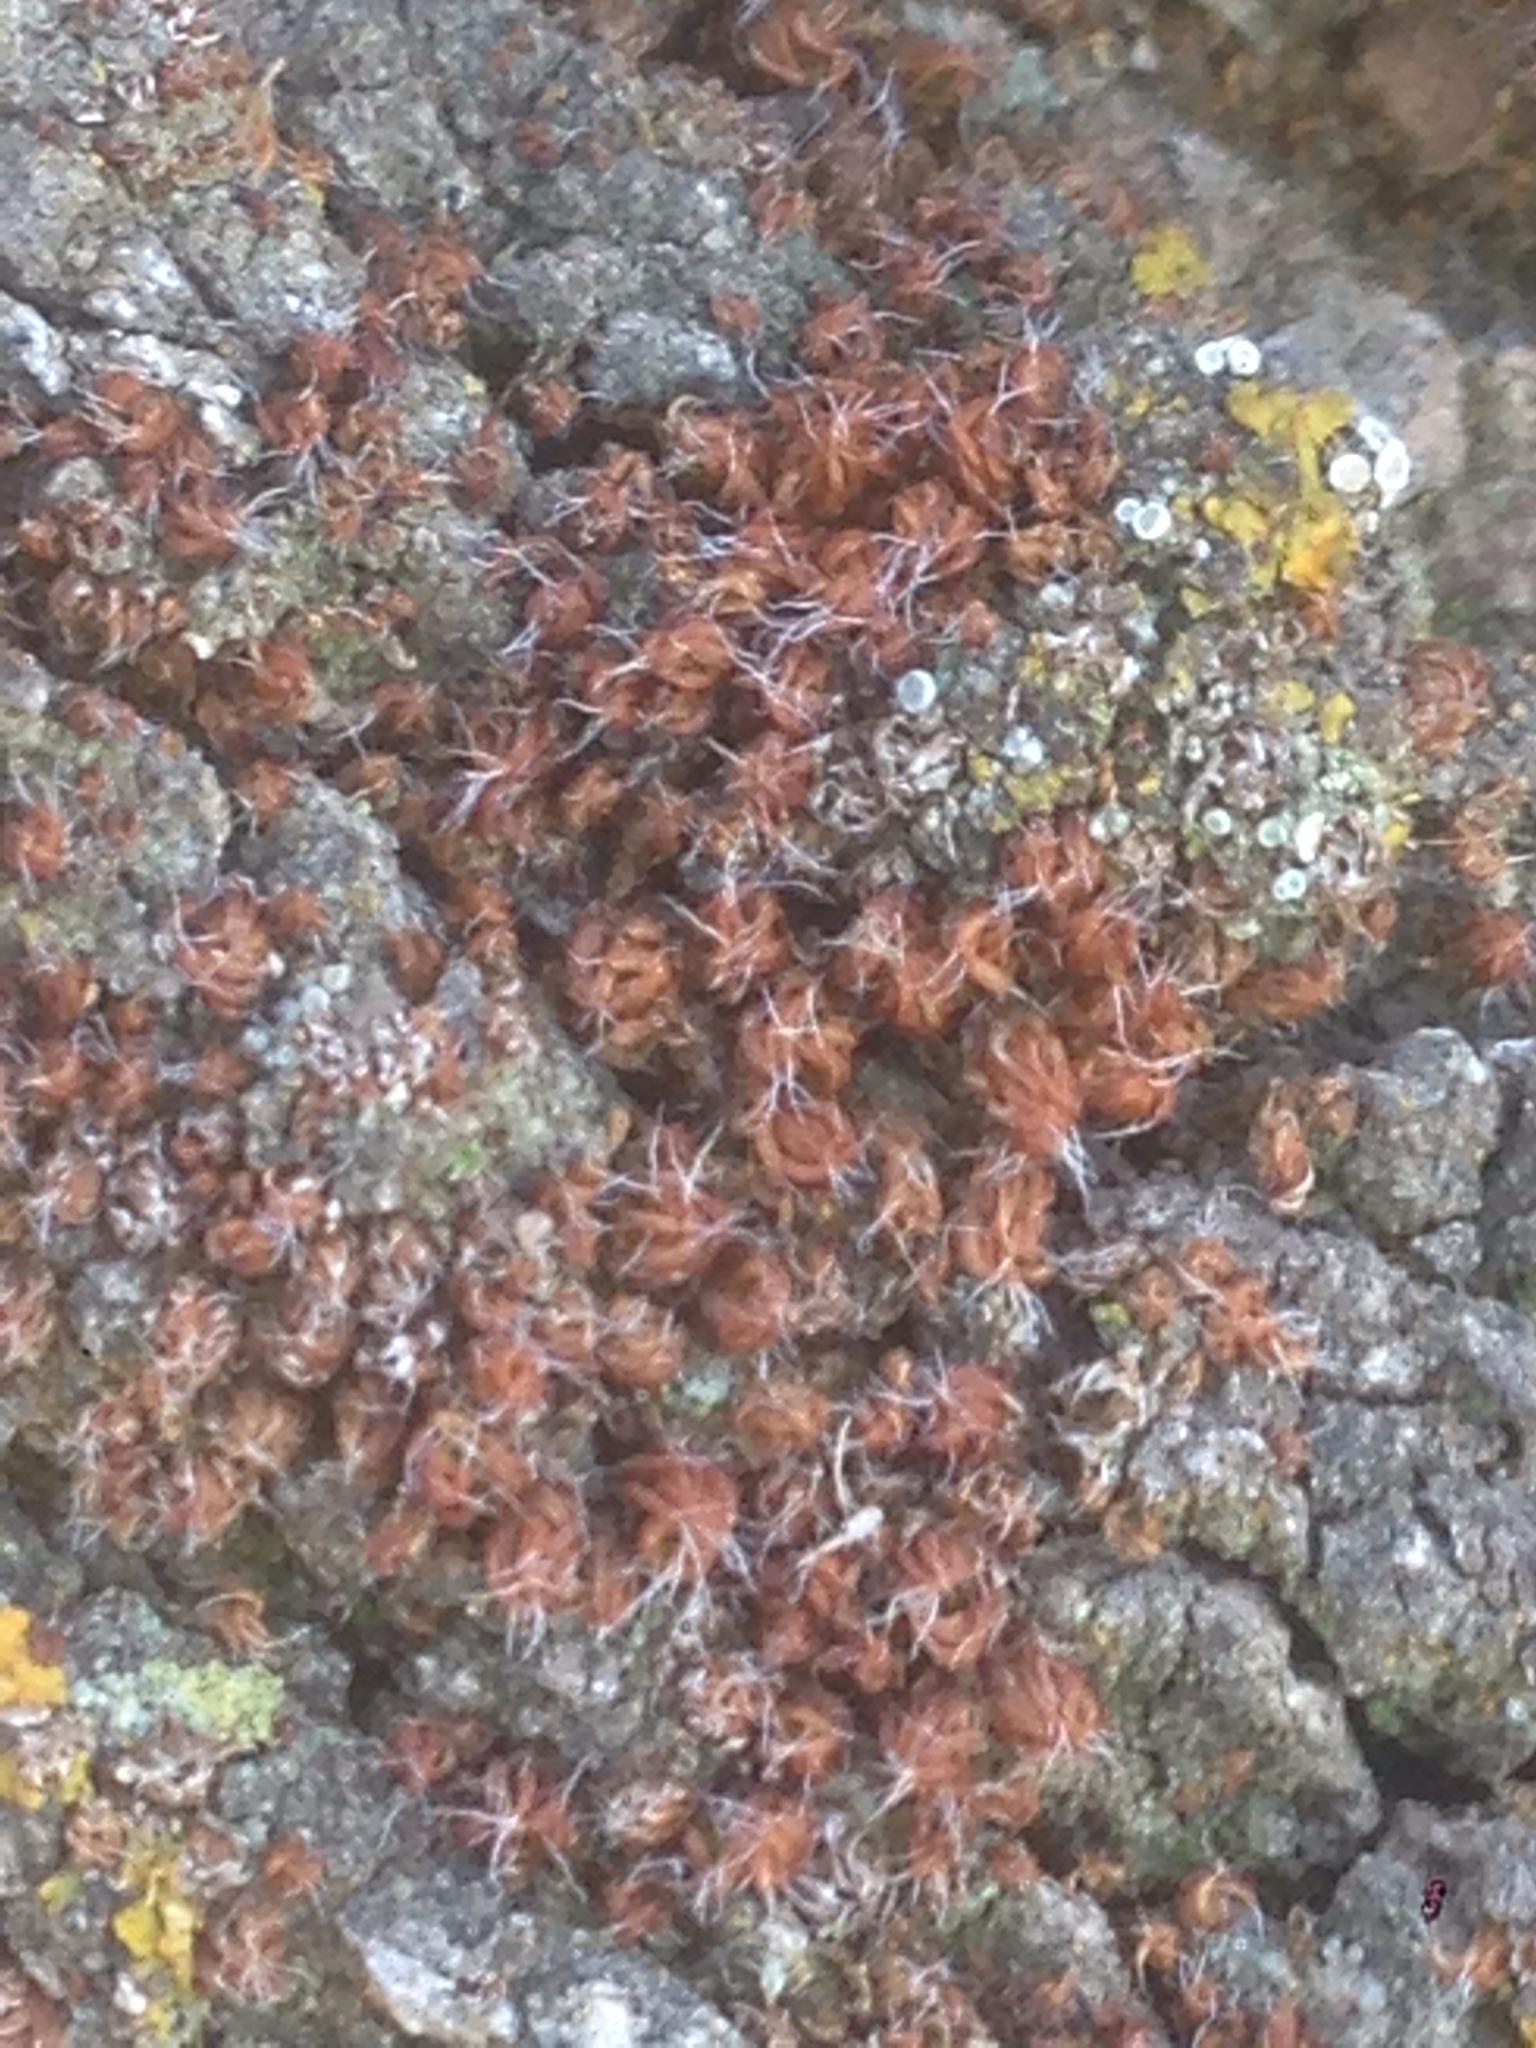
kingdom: Plantae
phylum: Bryophyta
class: Polytrichopsida
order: Polytrichales
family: Polytrichaceae
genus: Polytrichum
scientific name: Polytrichum piliferum
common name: Bristly haircap
